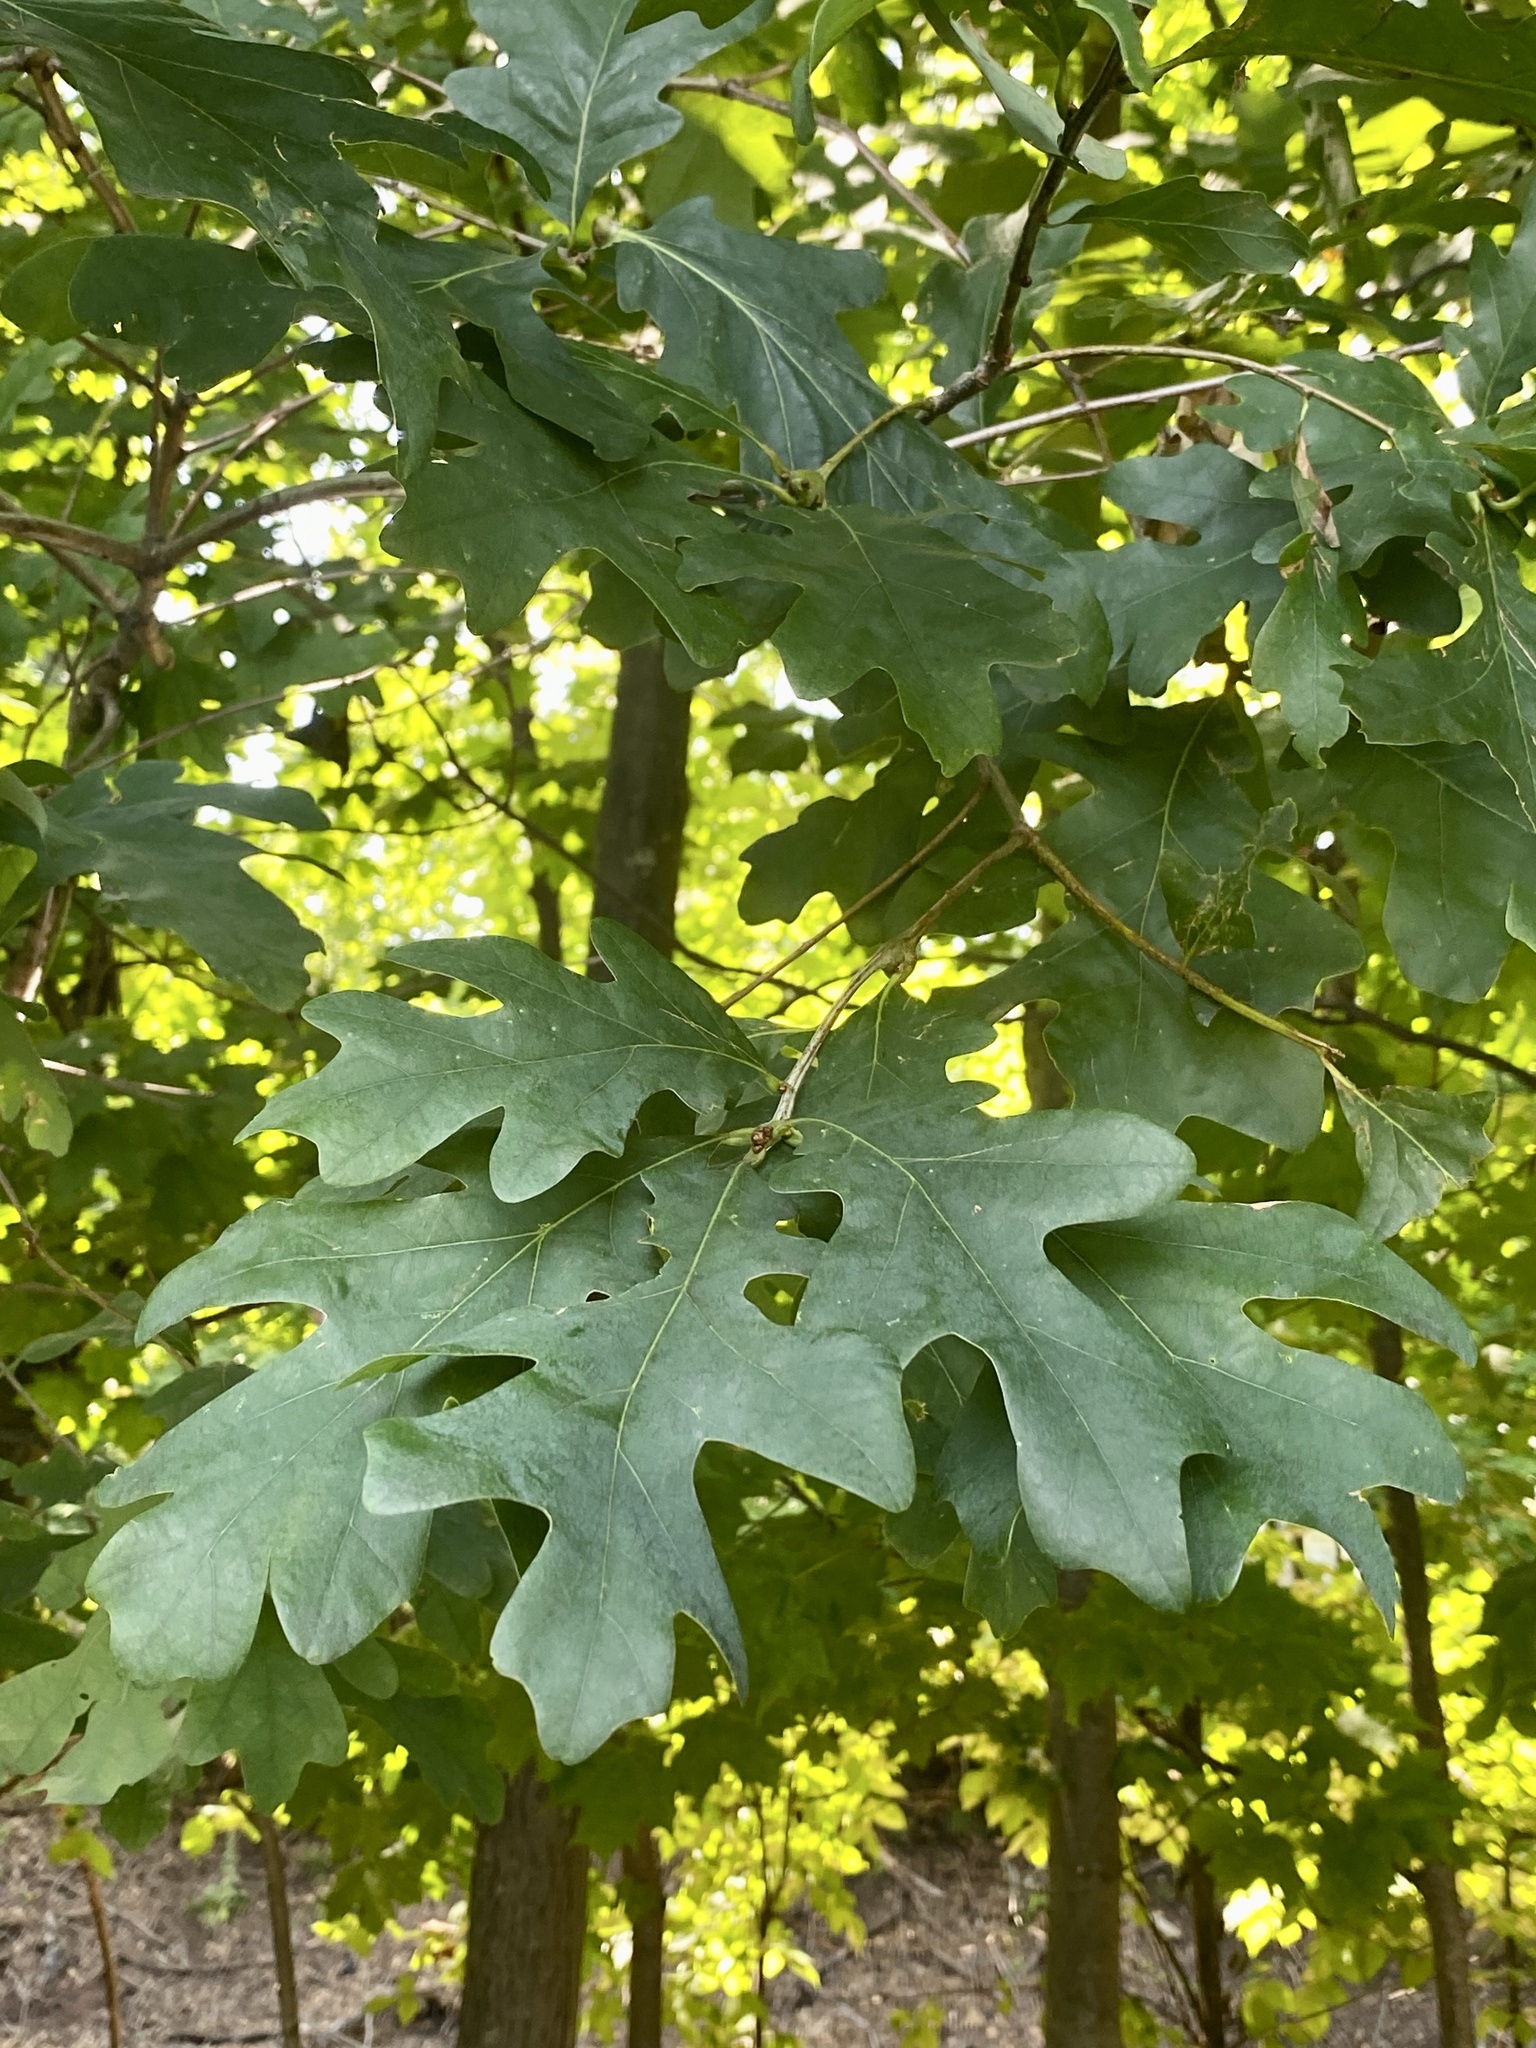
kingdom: Plantae
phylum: Tracheophyta
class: Magnoliopsida
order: Fagales
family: Fagaceae
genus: Quercus
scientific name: Quercus alba
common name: White oak
